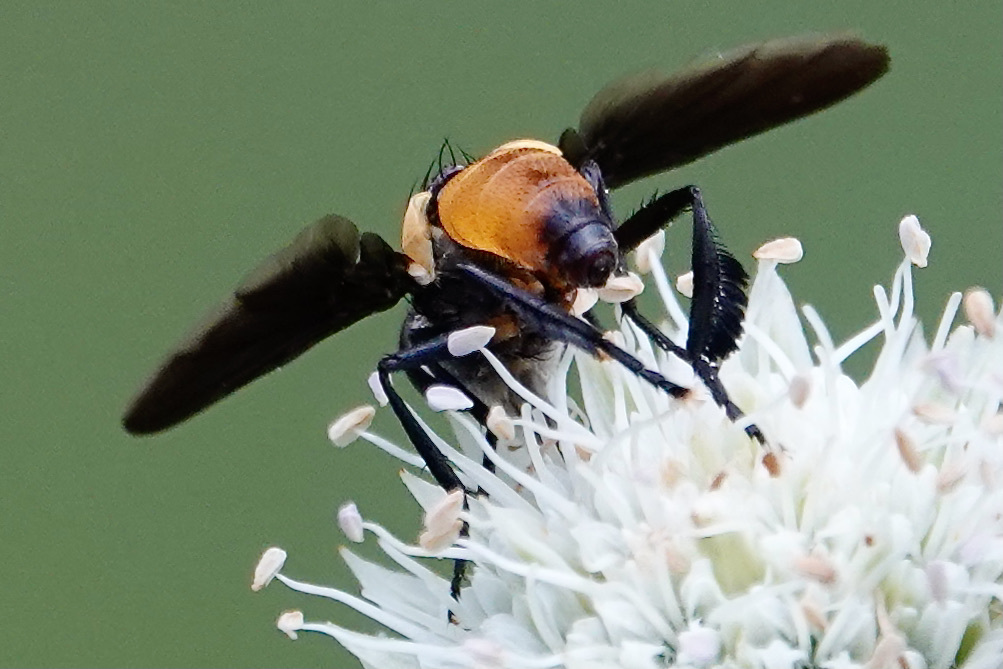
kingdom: Animalia
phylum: Arthropoda
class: Insecta
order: Diptera
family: Tachinidae
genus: Trichopoda
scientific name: Trichopoda pennipes
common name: Tachinid fly
